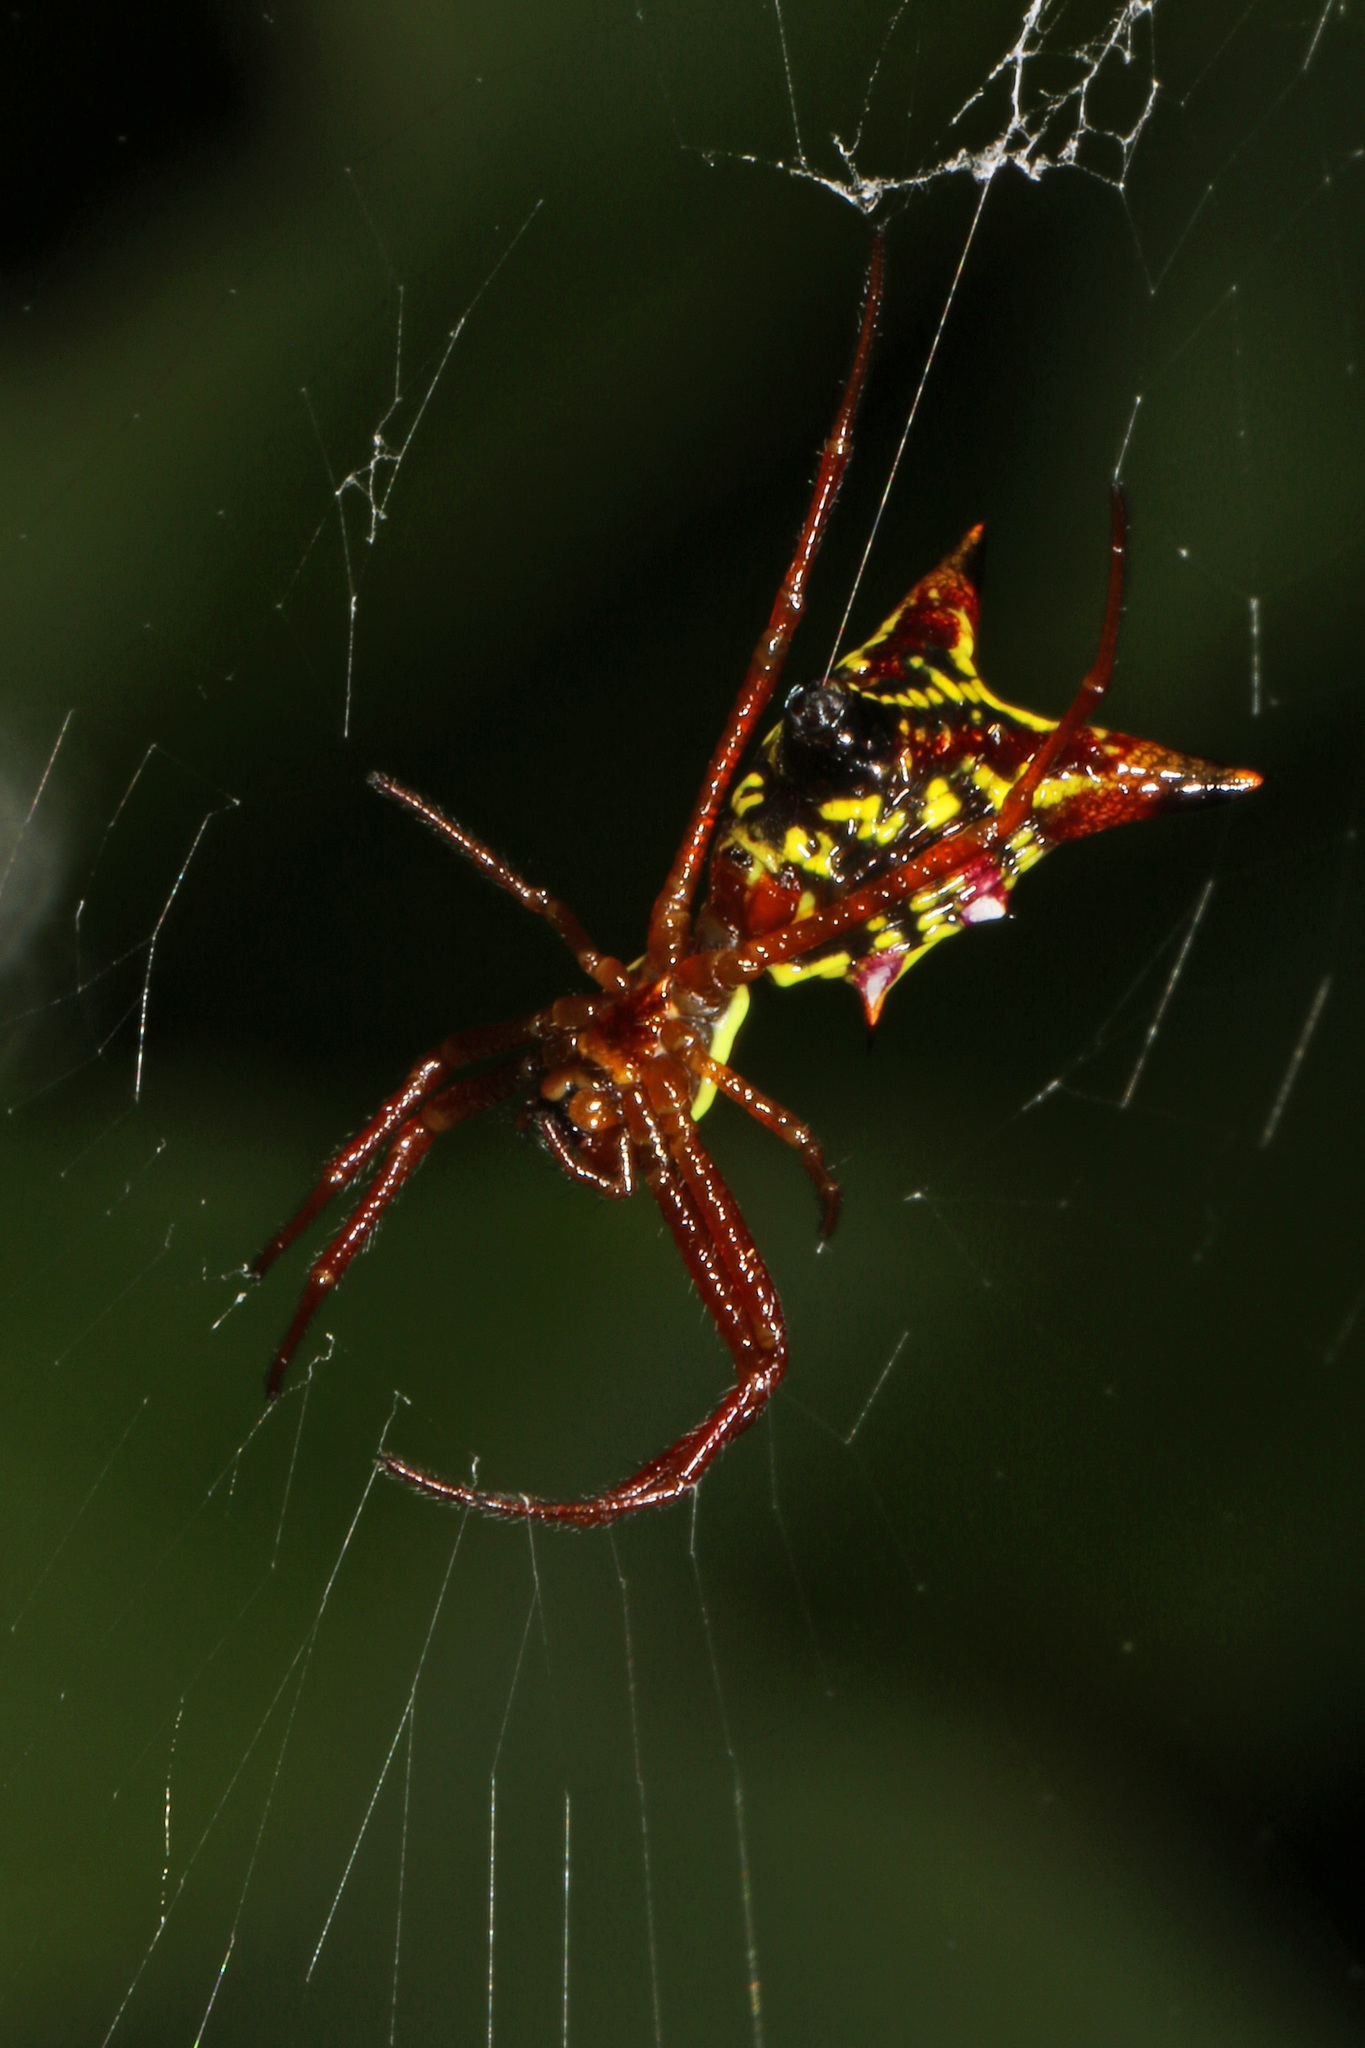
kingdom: Animalia
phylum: Arthropoda
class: Arachnida
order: Araneae
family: Araneidae
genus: Micrathena
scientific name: Micrathena sagittata
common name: Orb weavers
